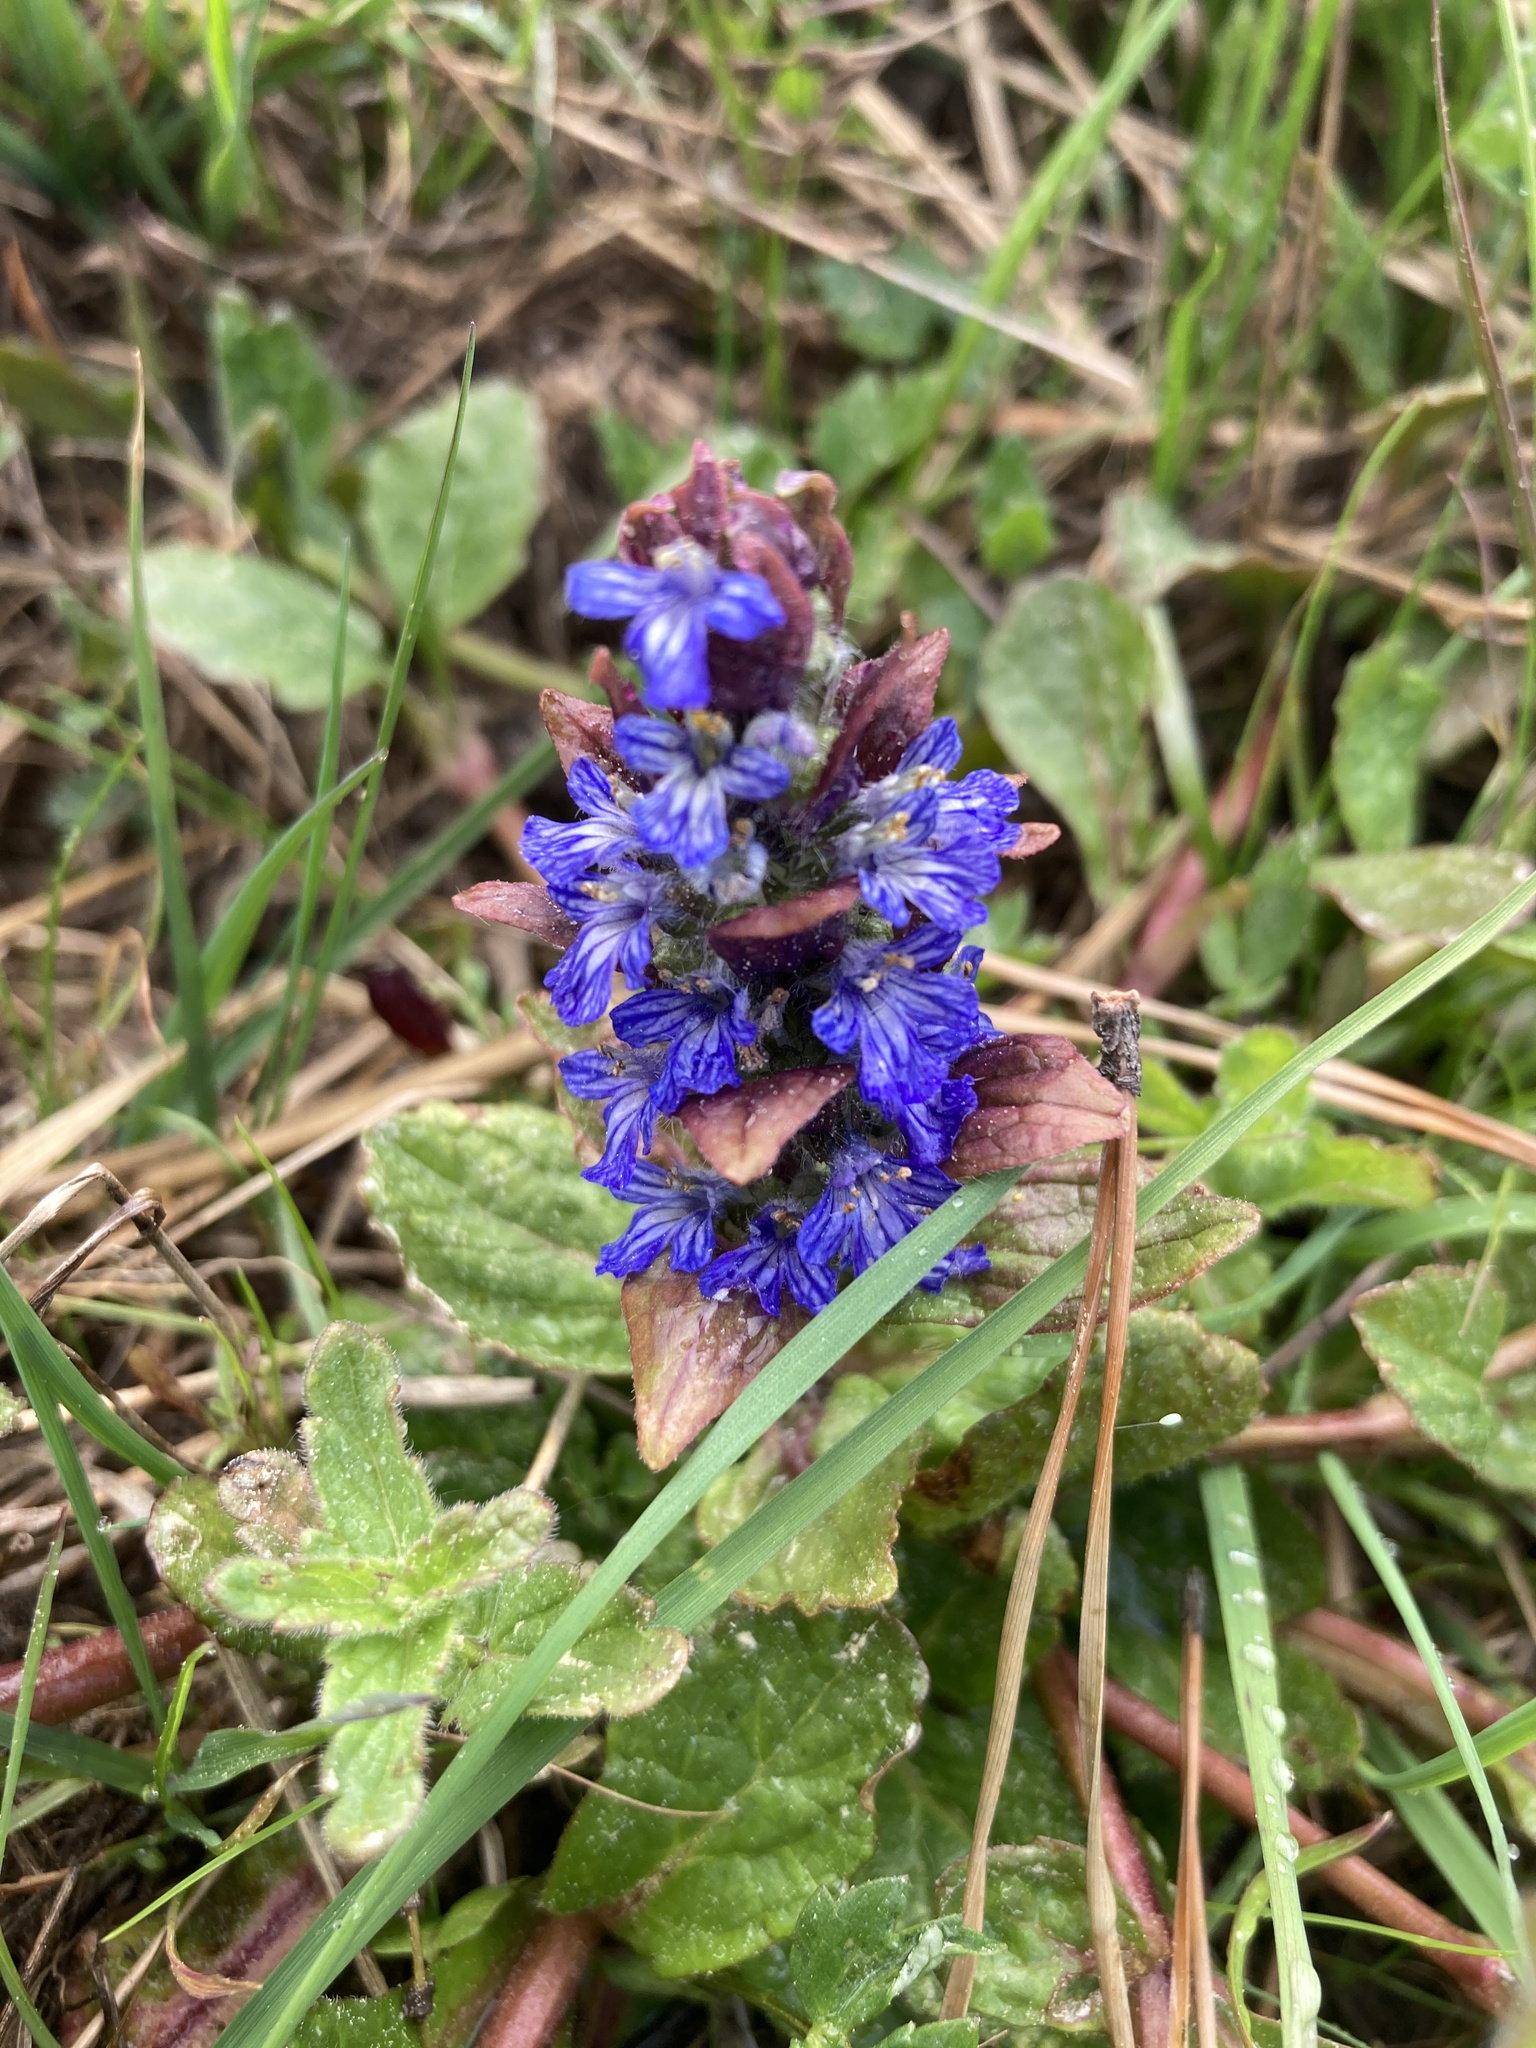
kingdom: Plantae
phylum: Tracheophyta
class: Magnoliopsida
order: Lamiales
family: Lamiaceae
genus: Ajuga
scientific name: Ajuga reptans
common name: Bugle
